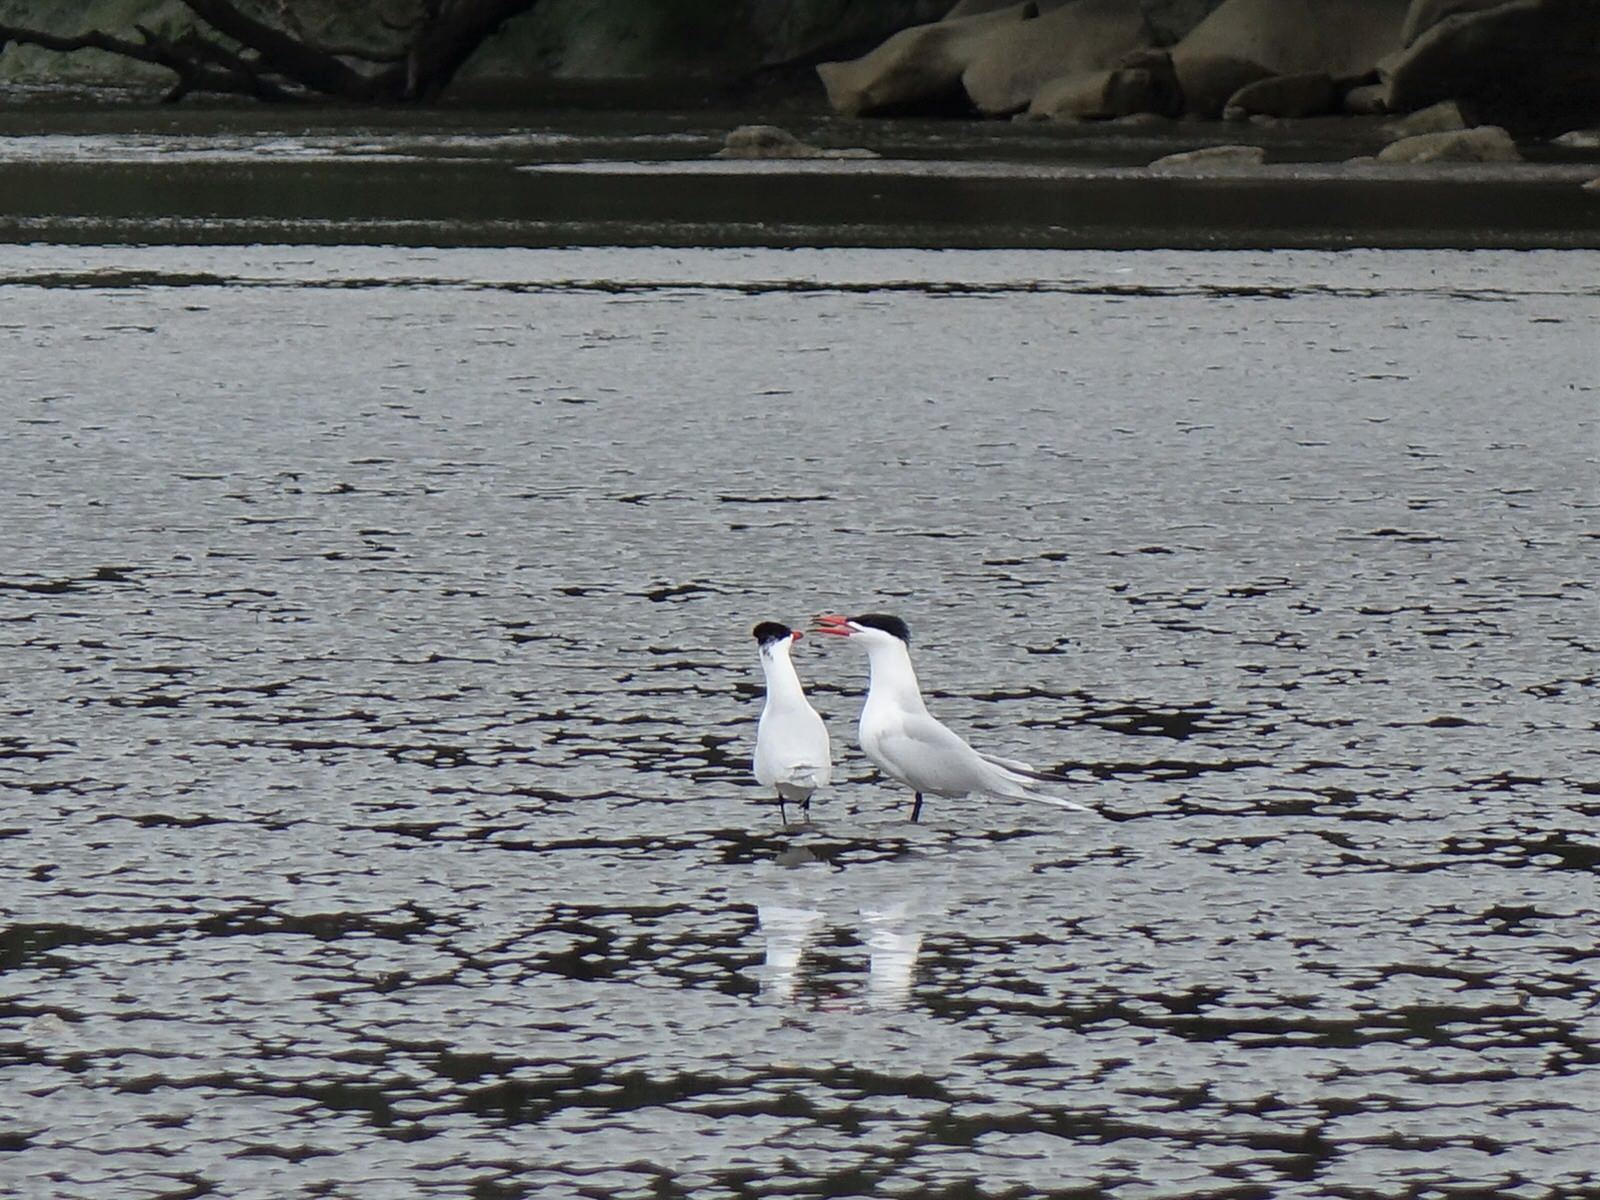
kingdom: Animalia
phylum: Chordata
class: Aves
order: Charadriiformes
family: Laridae
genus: Hydroprogne
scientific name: Hydroprogne caspia
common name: Caspian tern
